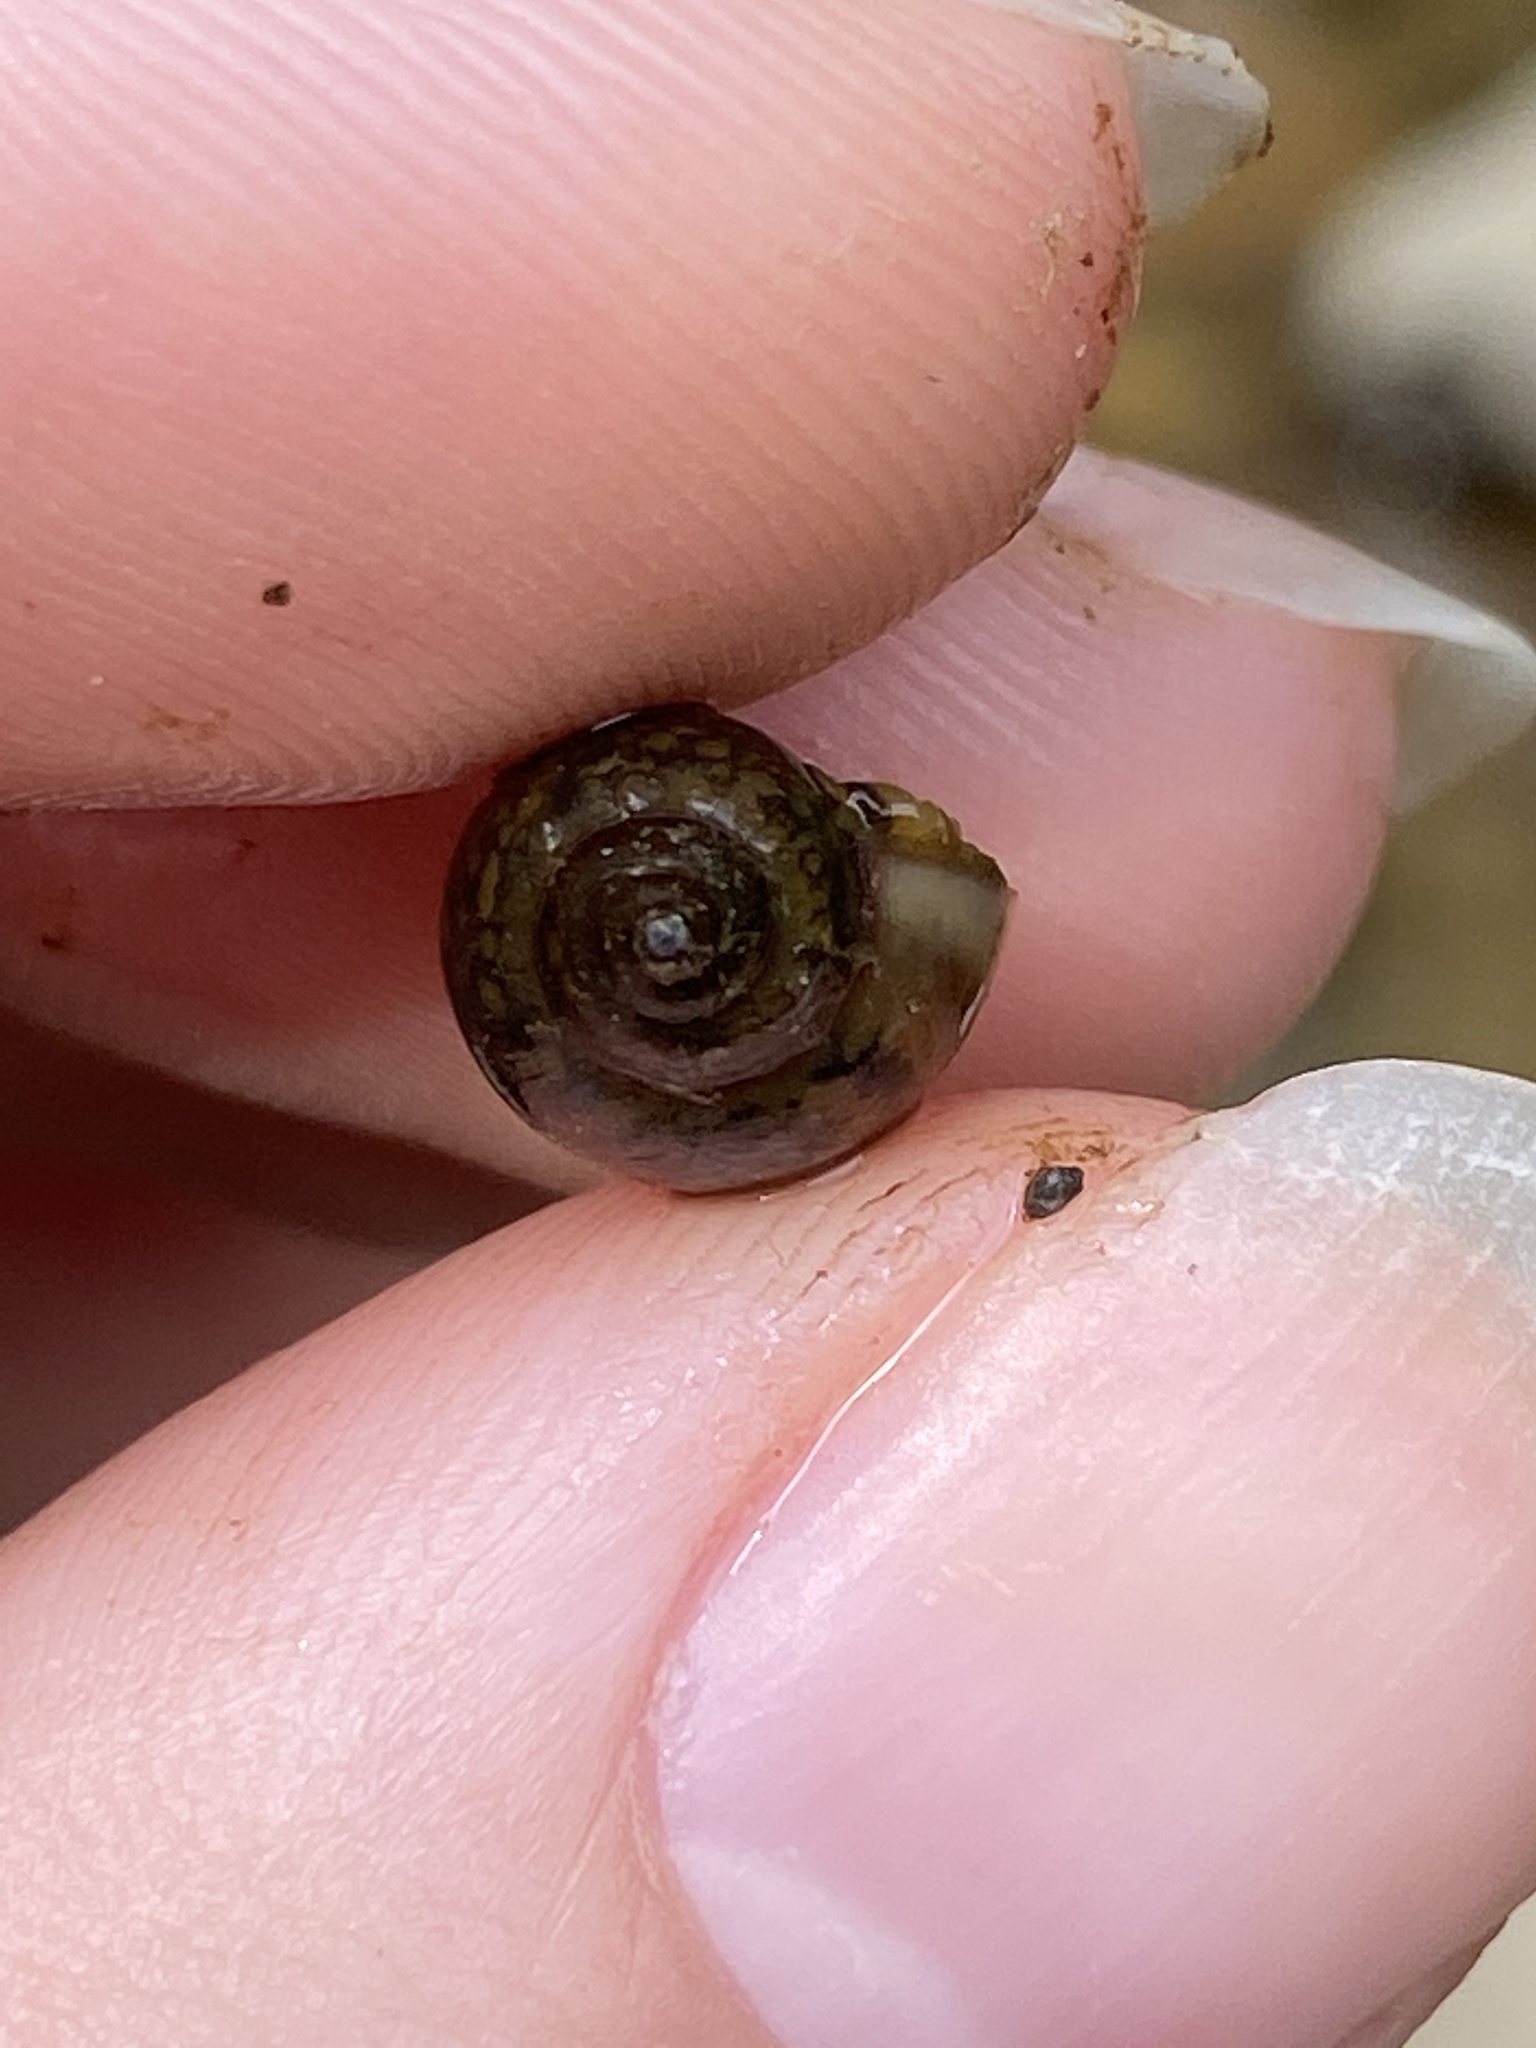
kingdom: Animalia
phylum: Mollusca
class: Gastropoda
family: Physidae
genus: Physella
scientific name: Physella acuta
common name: European physa
